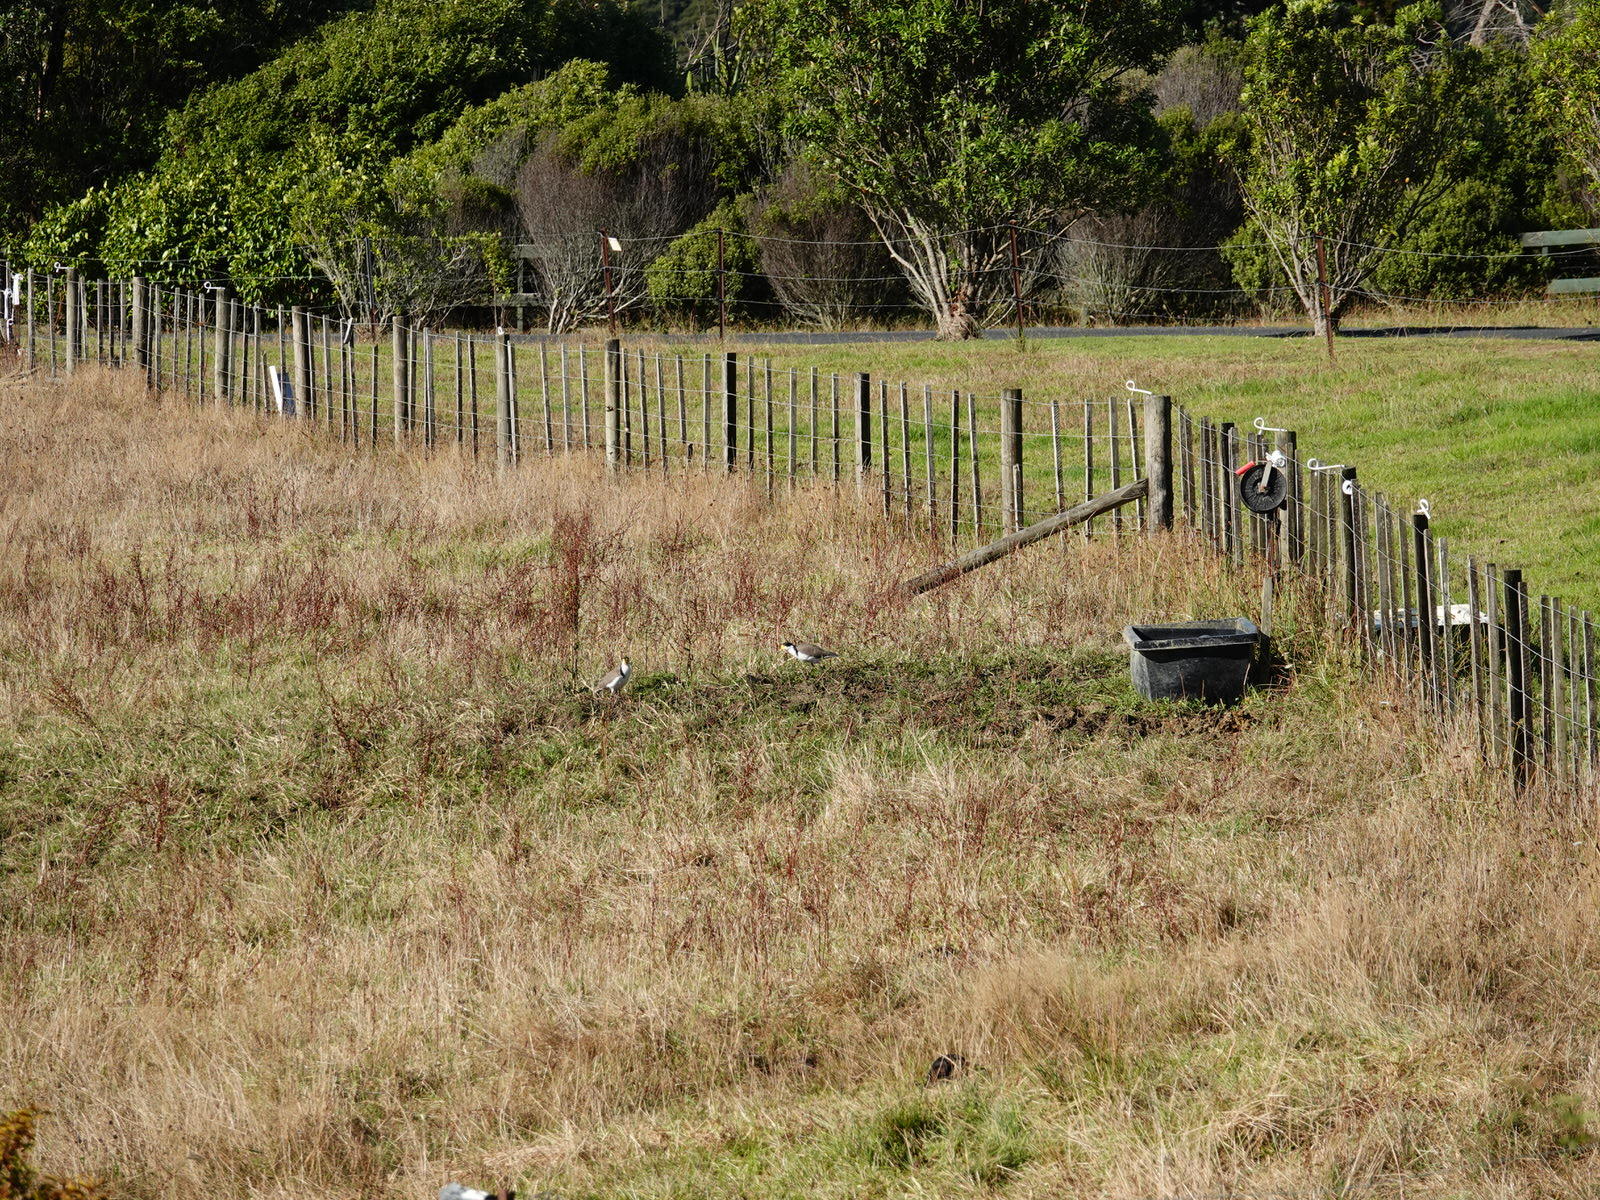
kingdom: Animalia
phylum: Chordata
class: Aves
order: Charadriiformes
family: Charadriidae
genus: Vanellus
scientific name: Vanellus miles
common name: Masked lapwing
